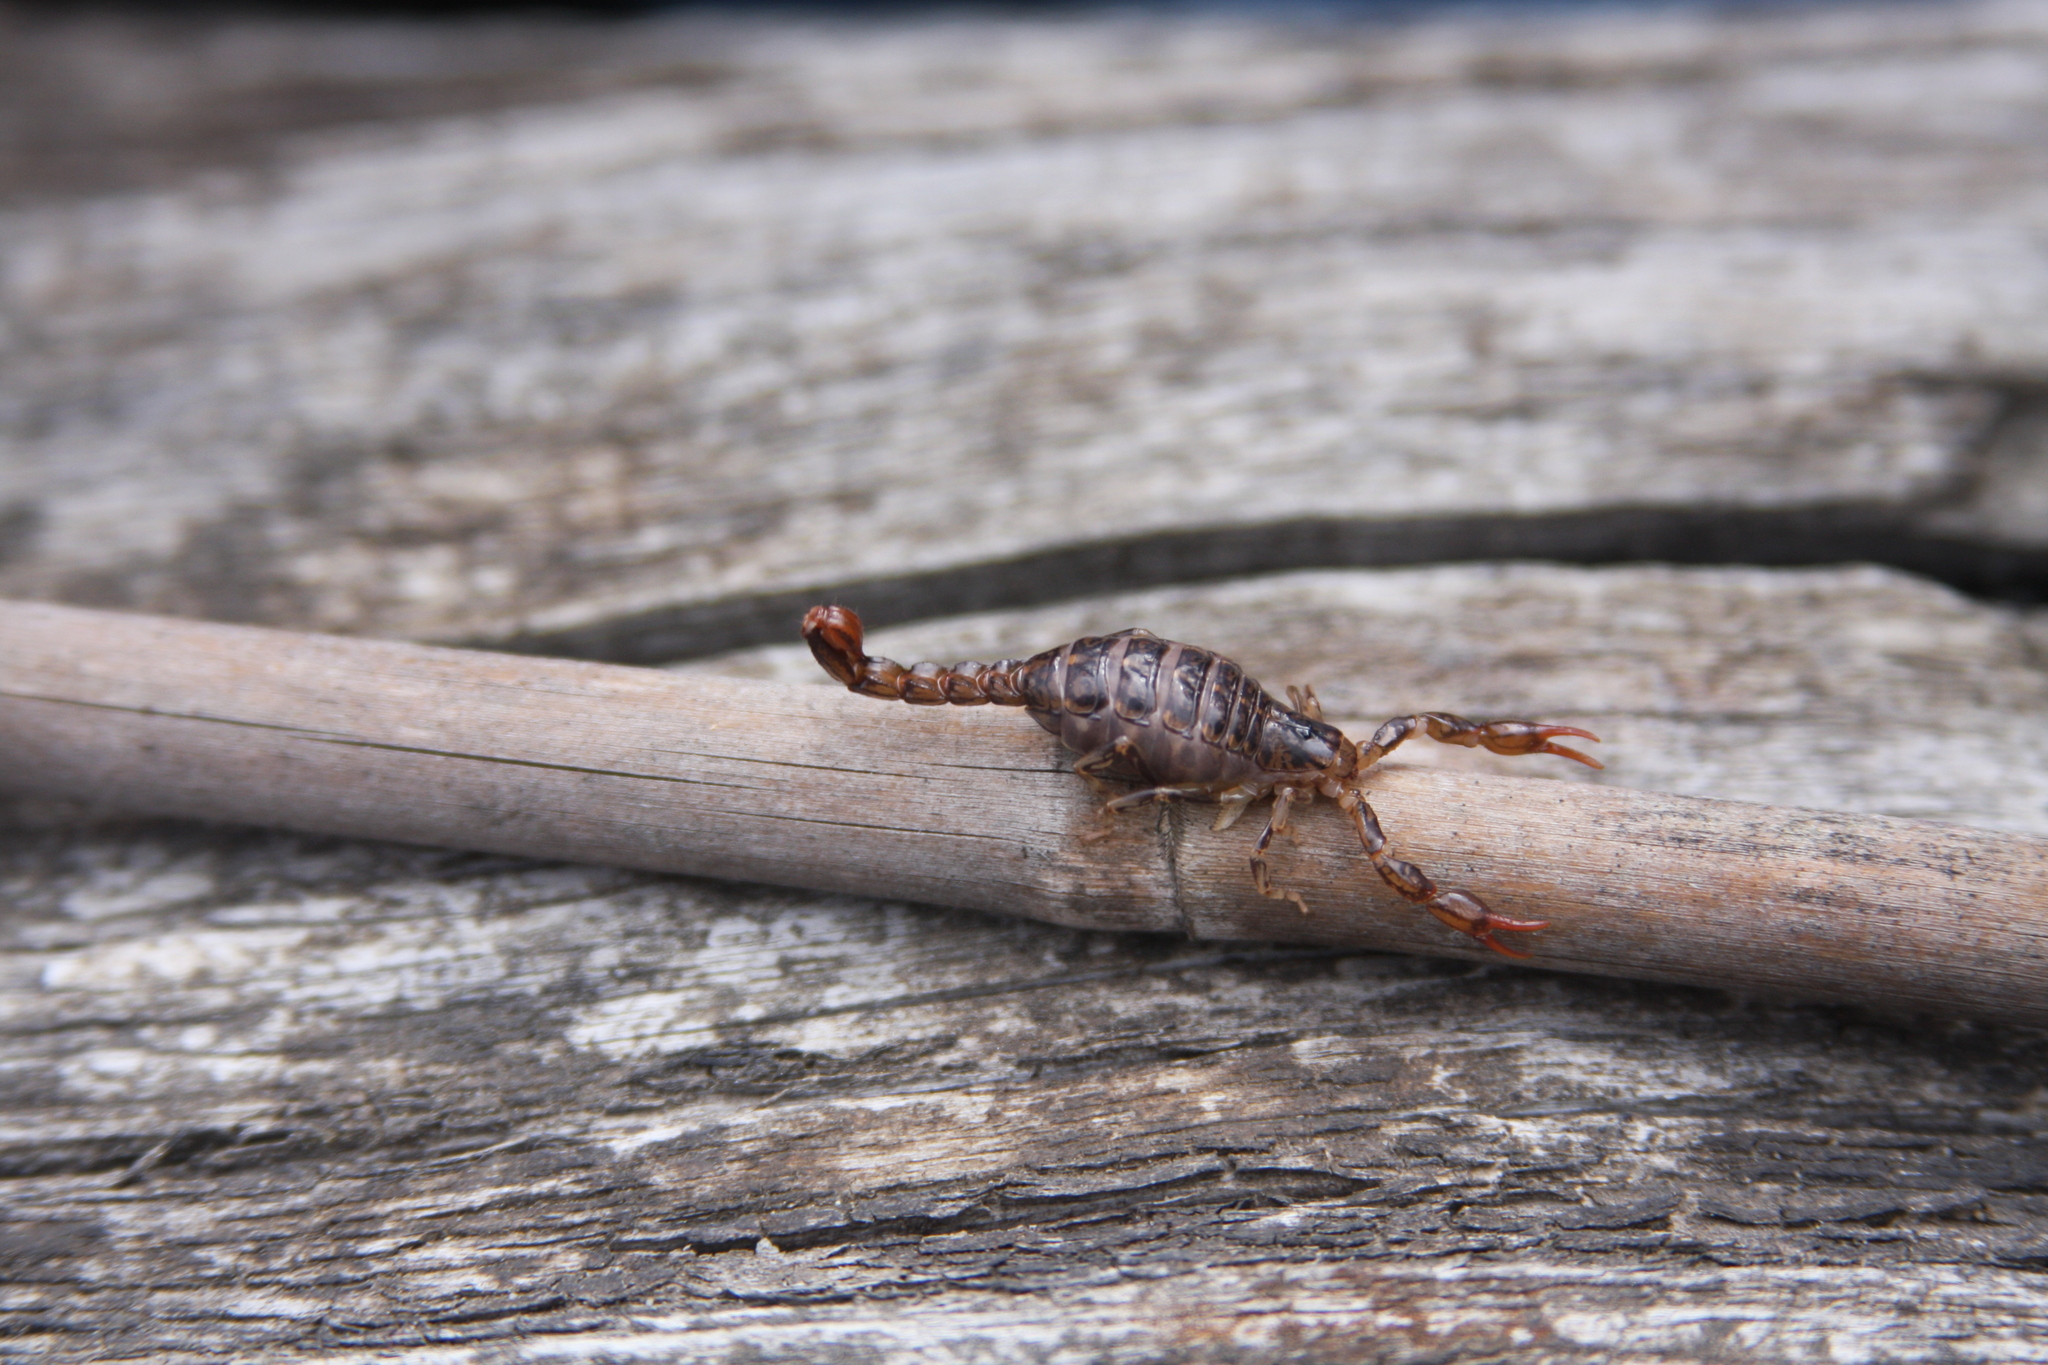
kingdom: Animalia
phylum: Arthropoda
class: Arachnida
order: Scorpiones
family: Bothriuridae
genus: Cercophonius
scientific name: Cercophonius squama
